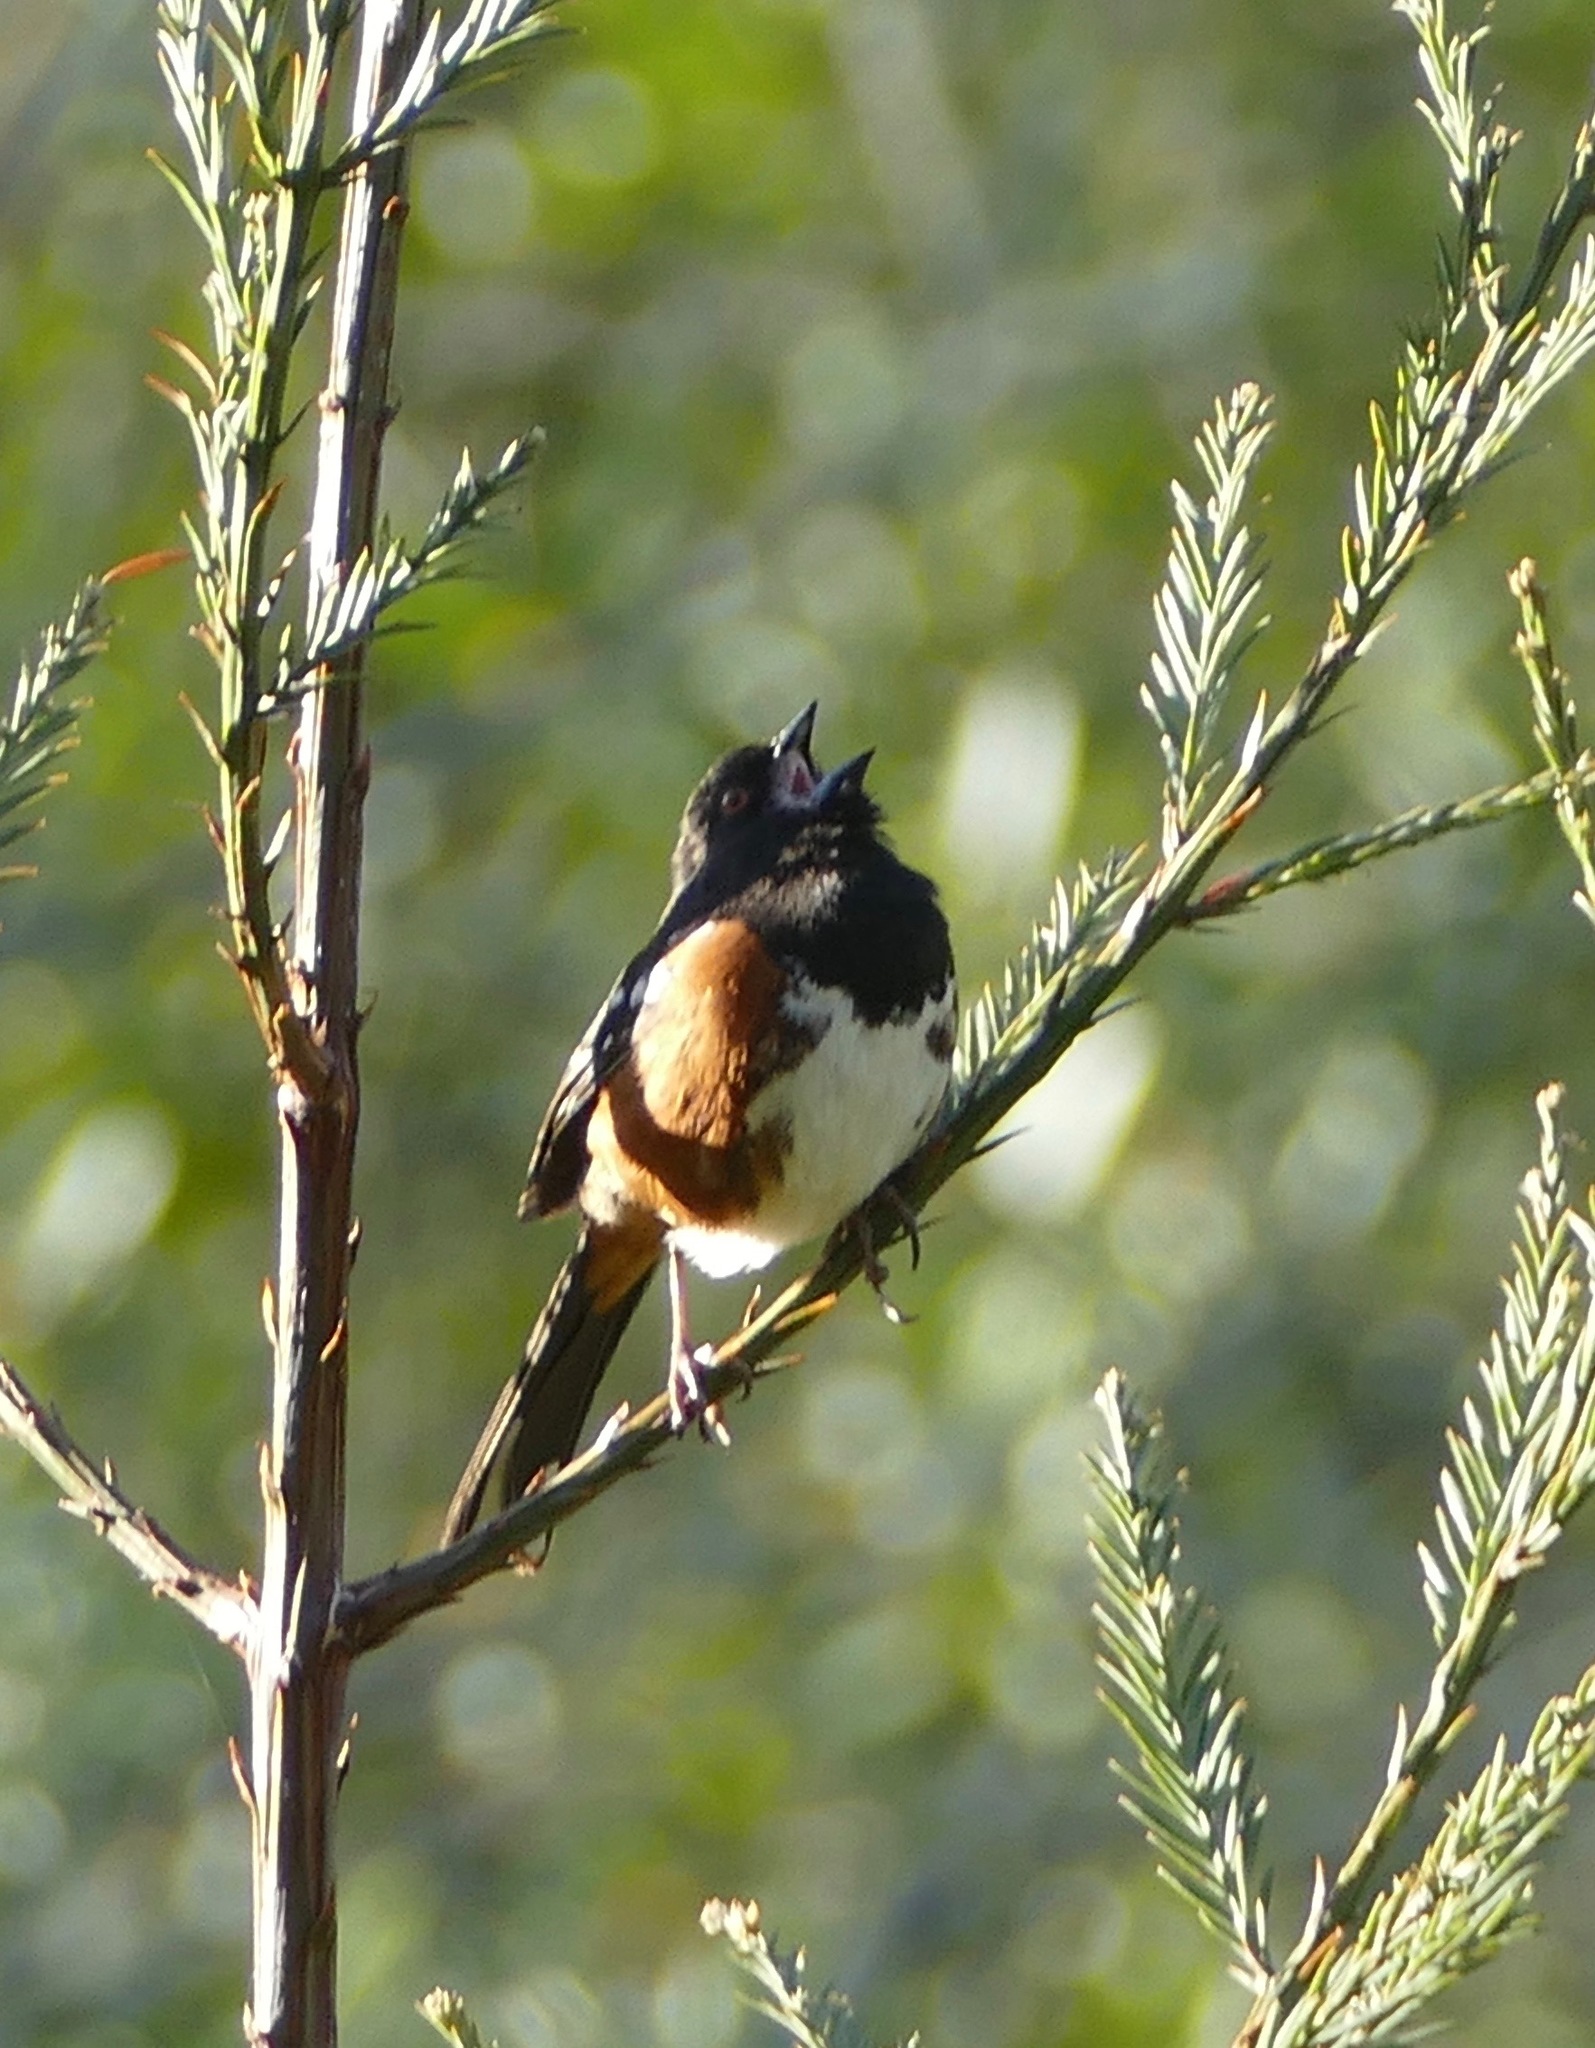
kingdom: Animalia
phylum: Chordata
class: Aves
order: Passeriformes
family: Passerellidae
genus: Pipilo
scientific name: Pipilo maculatus
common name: Spotted towhee
